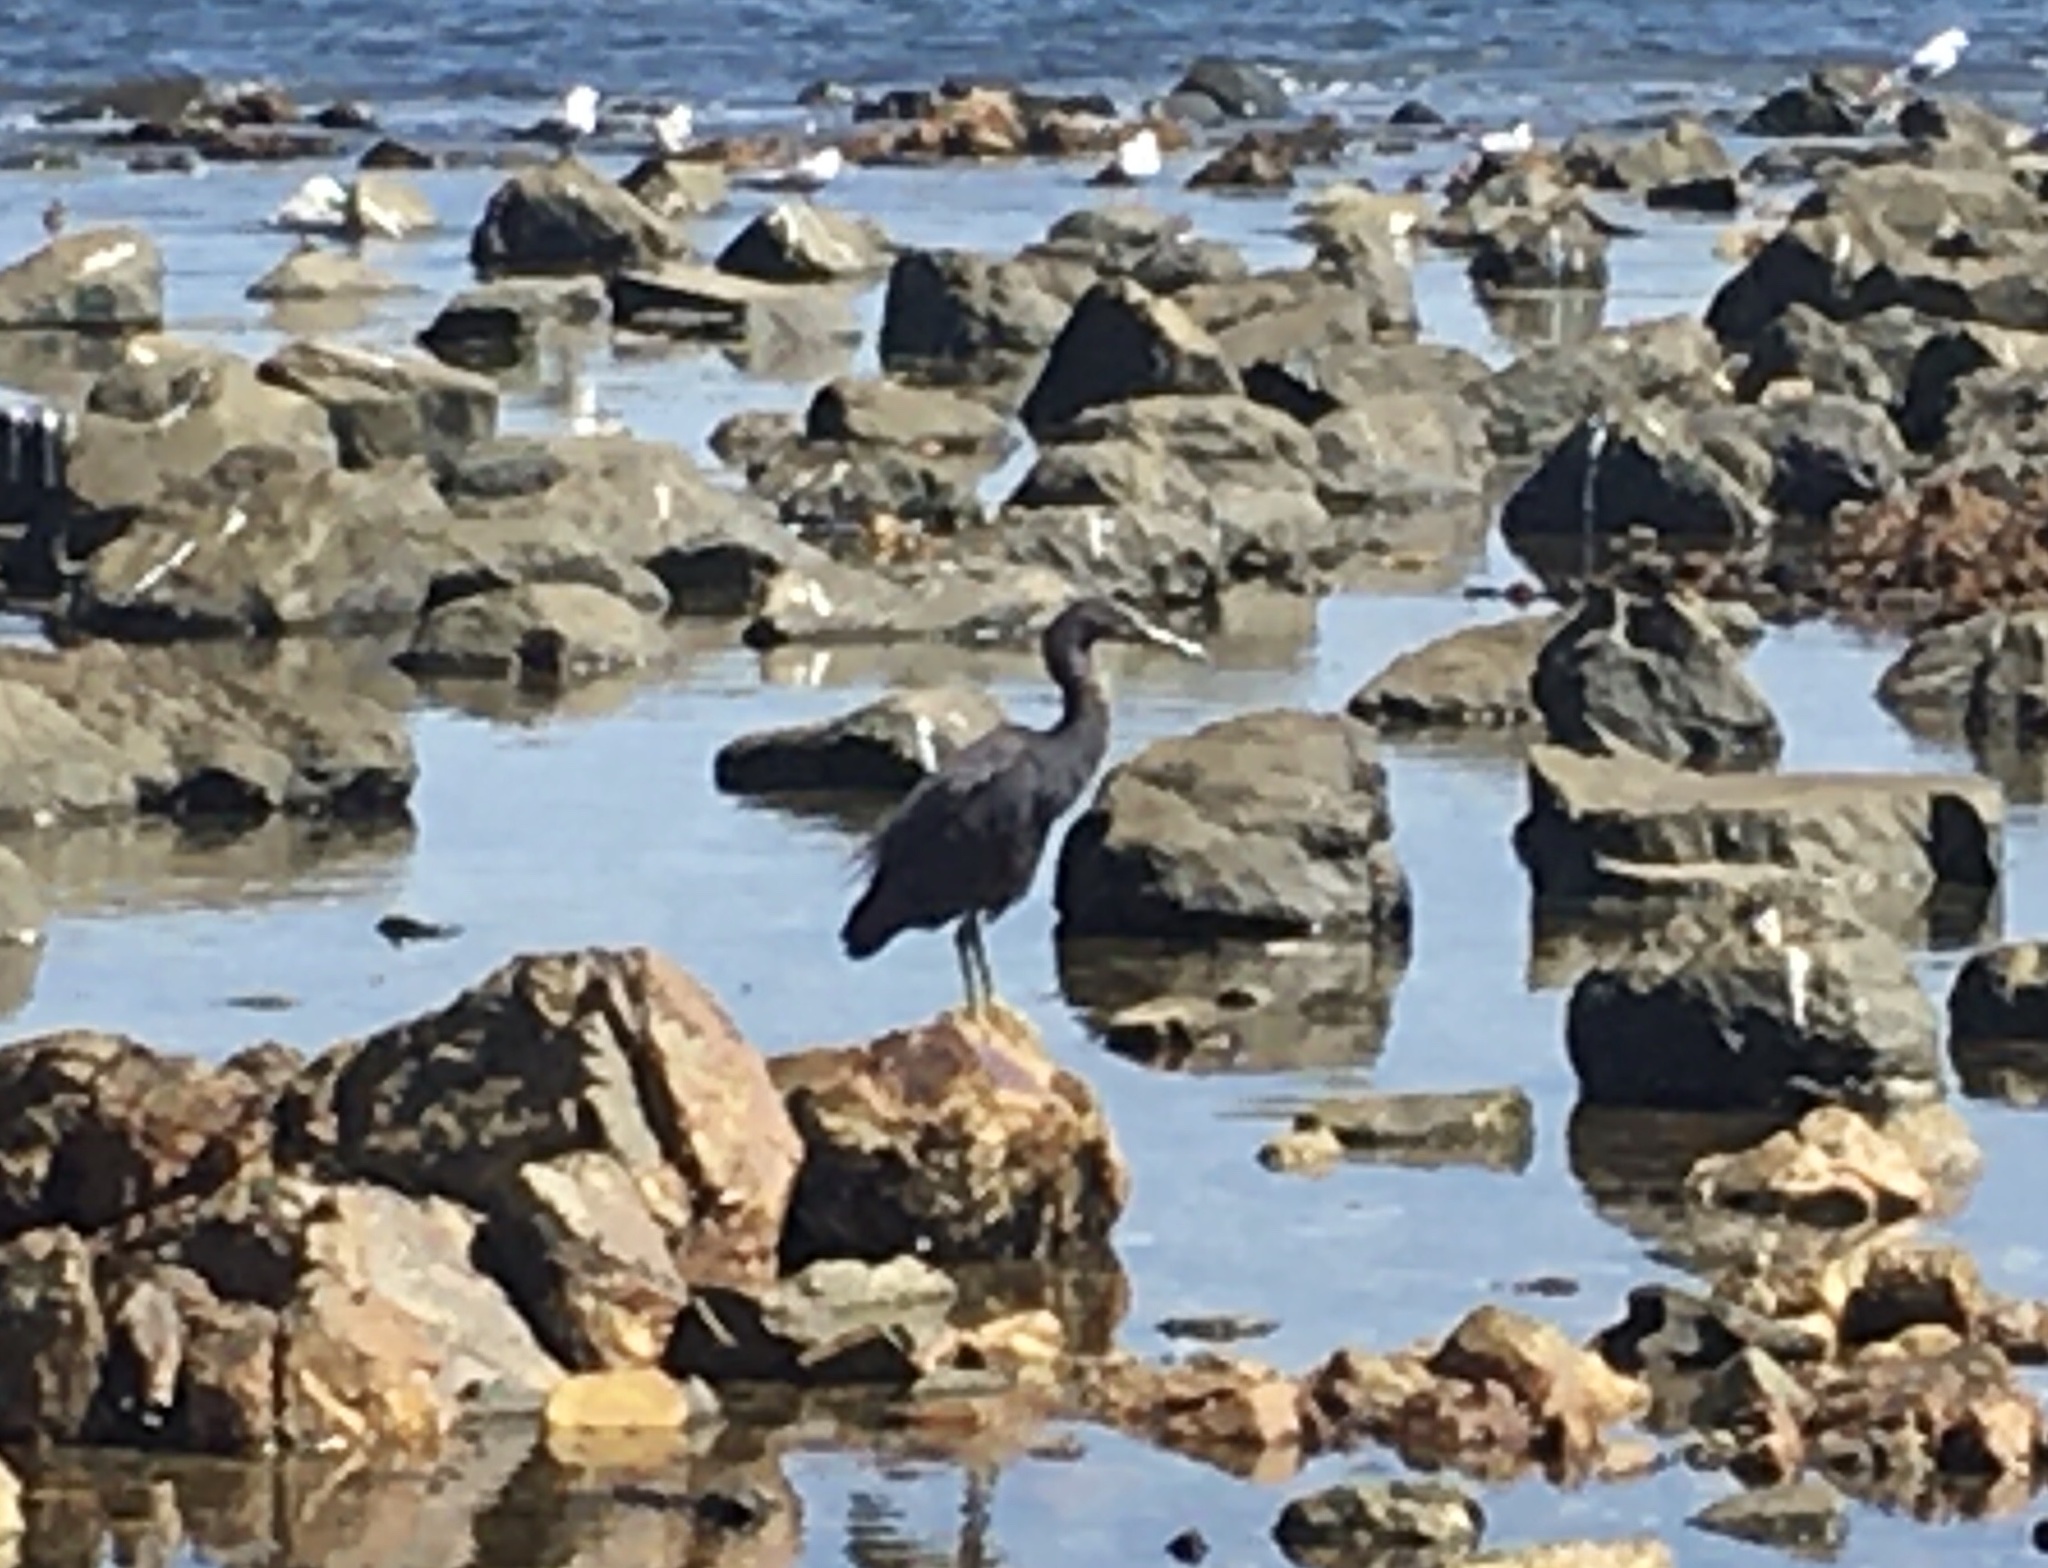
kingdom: Animalia
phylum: Chordata
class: Aves
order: Pelecaniformes
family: Ardeidae
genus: Egretta
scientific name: Egretta sacra
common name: Pacific reef heron
